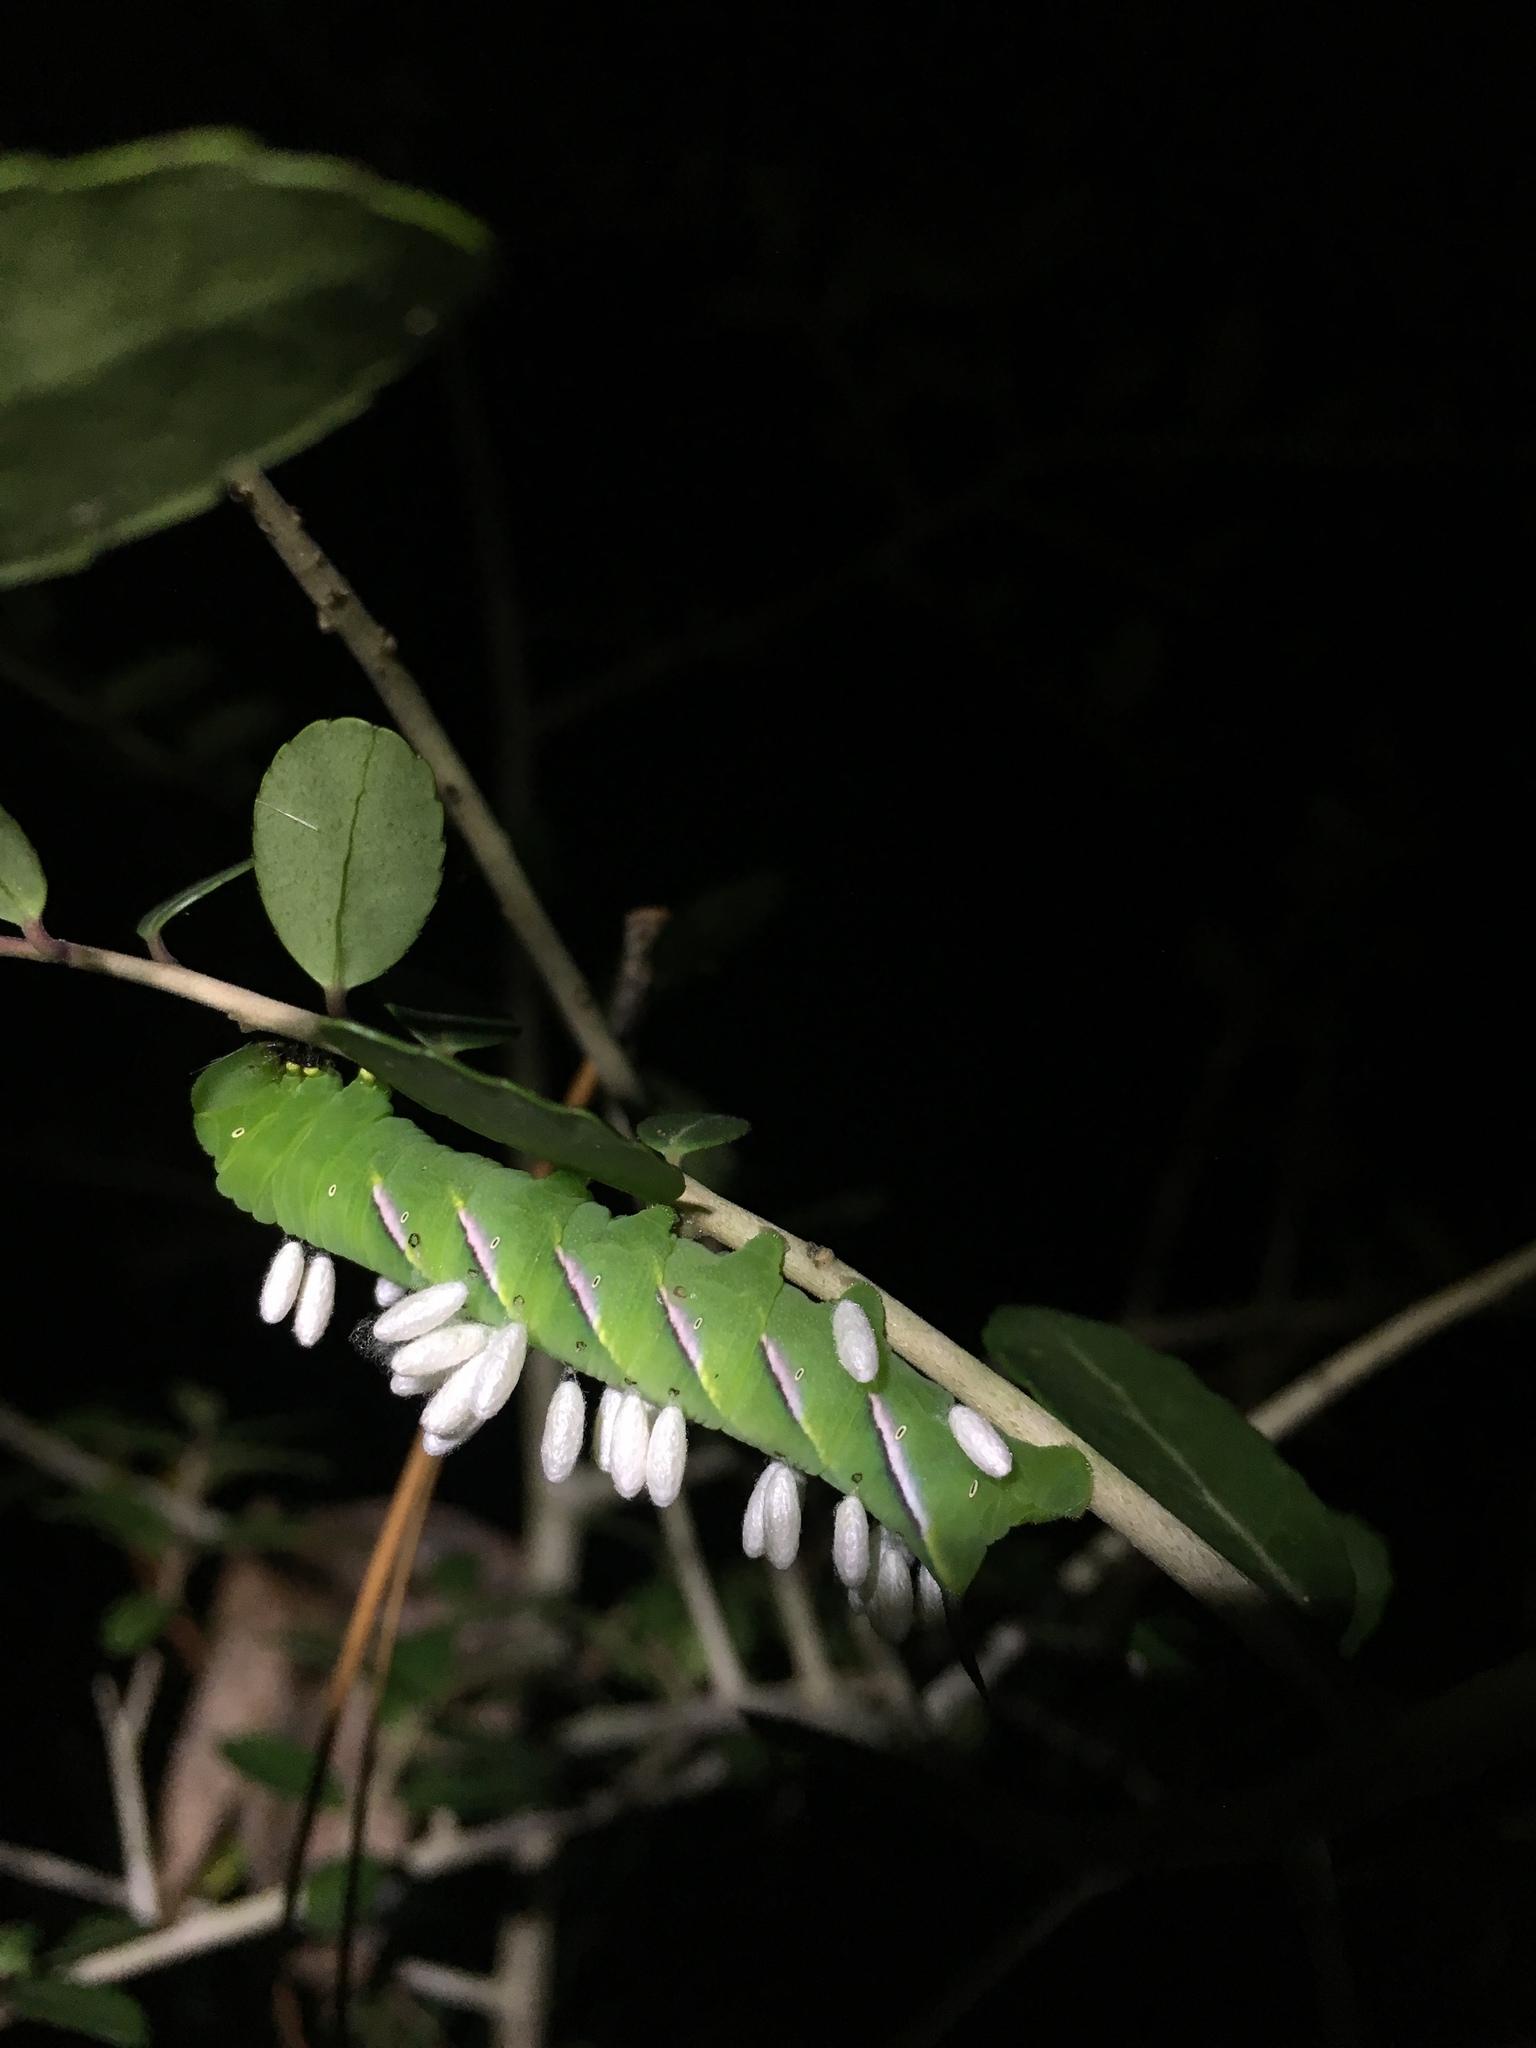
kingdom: Animalia
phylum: Arthropoda
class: Insecta
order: Lepidoptera
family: Sphingidae
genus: Dolba
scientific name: Dolba hyloeus
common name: Pawpaw sphinx
